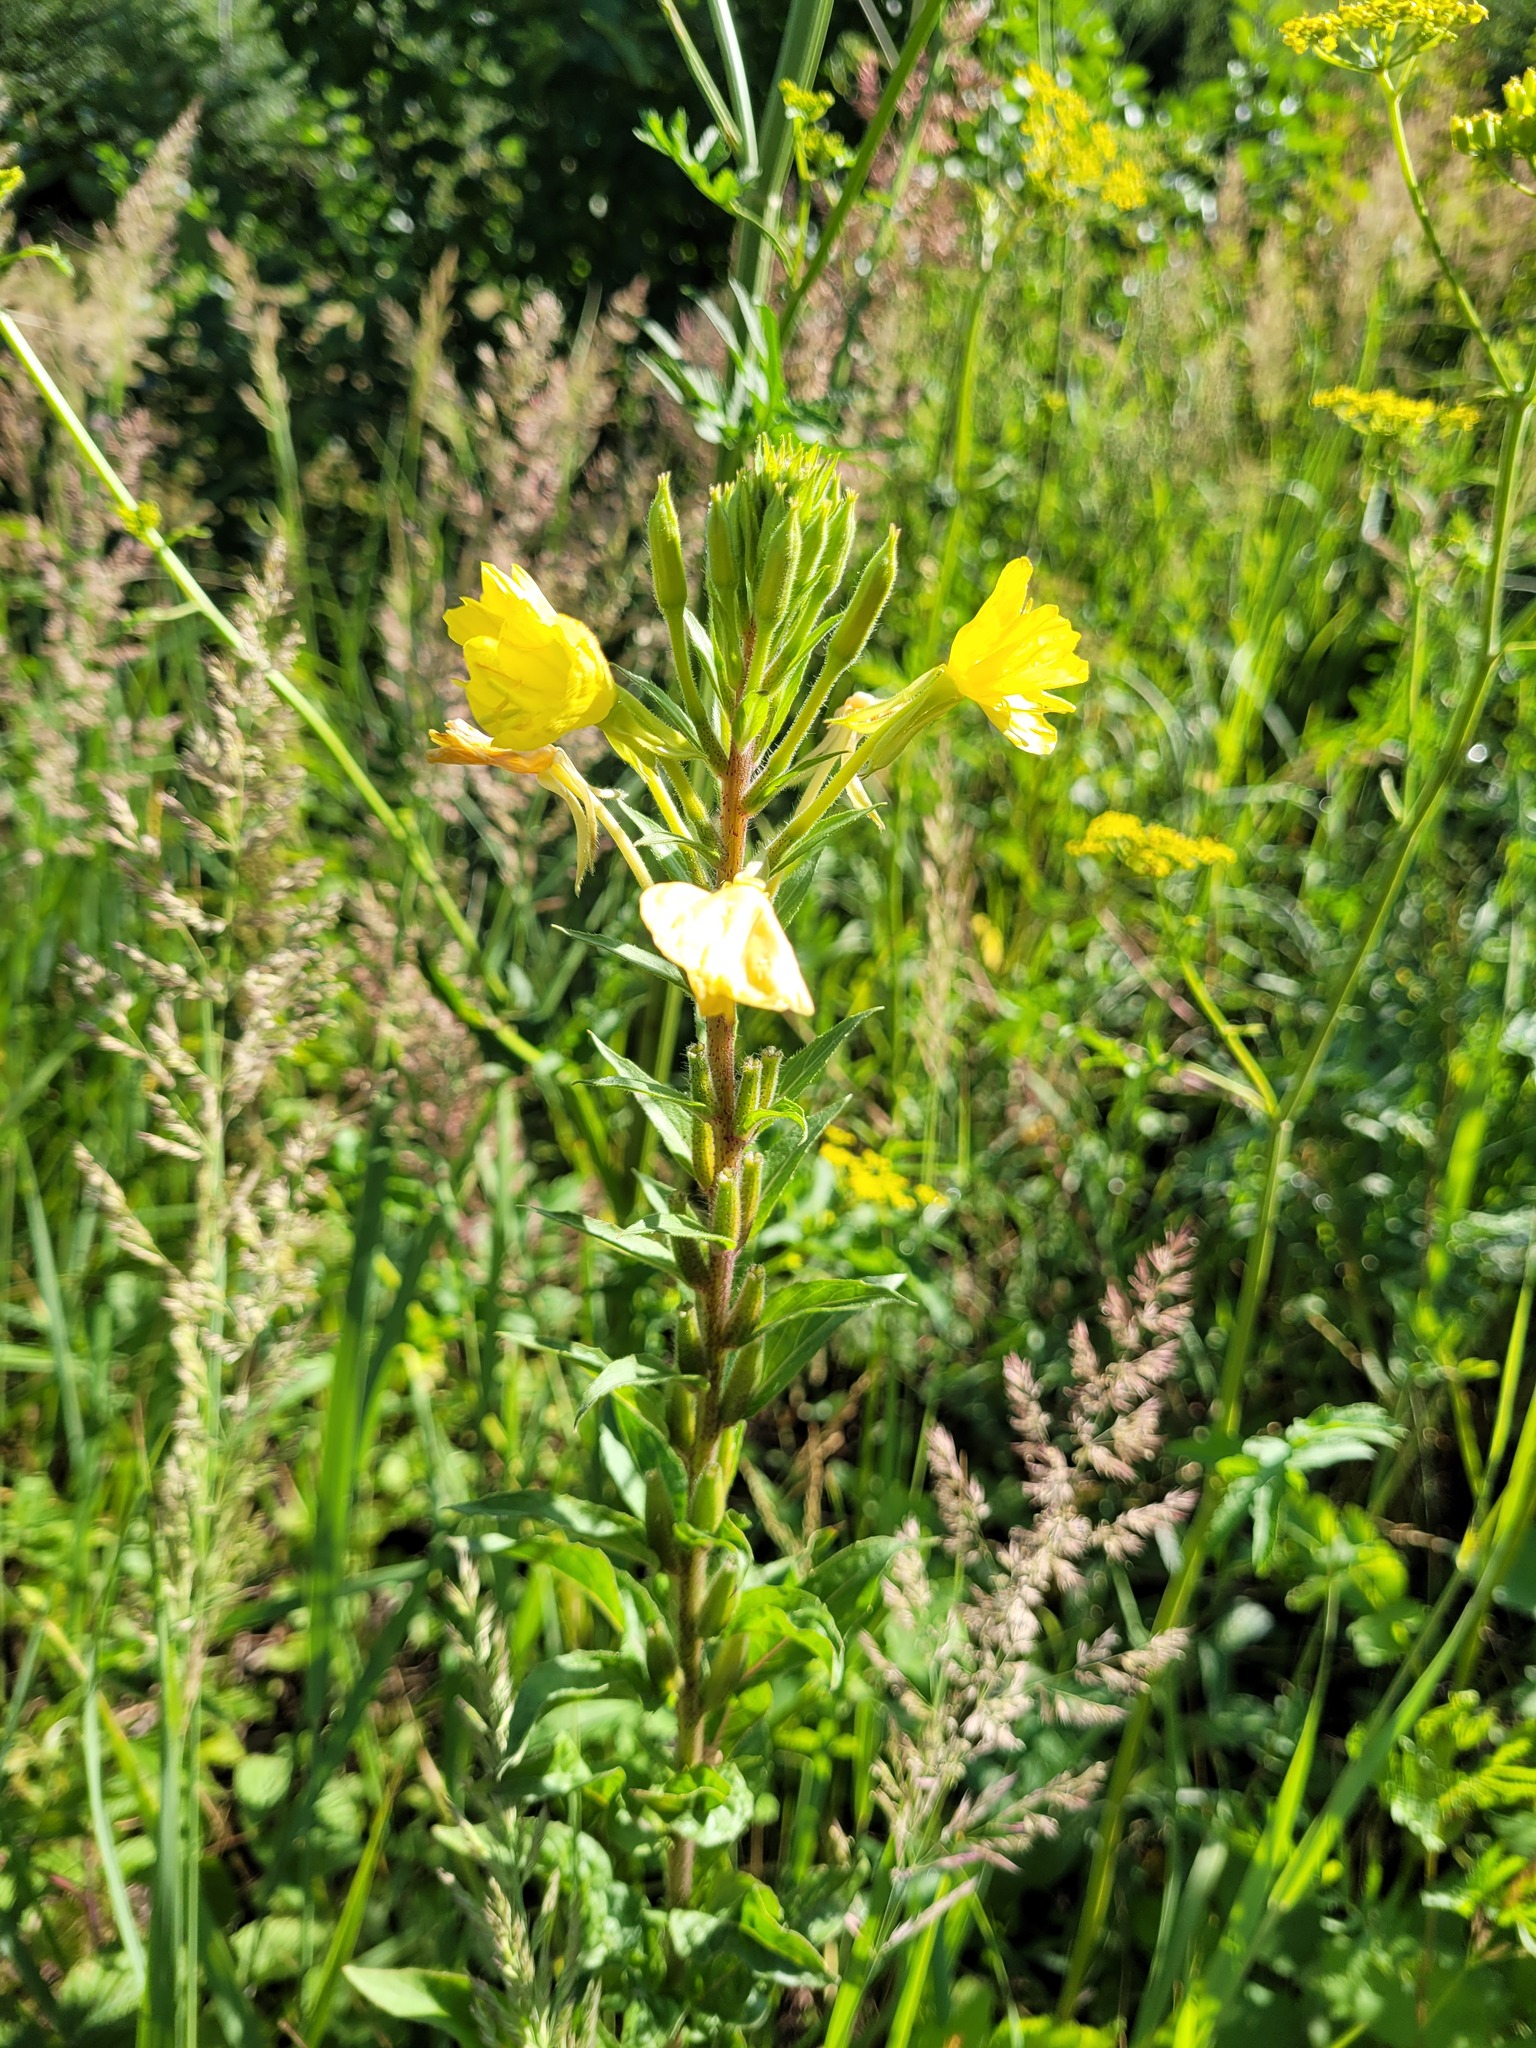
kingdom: Plantae
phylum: Tracheophyta
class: Magnoliopsida
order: Myrtales
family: Onagraceae
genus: Oenothera
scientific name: Oenothera rubricaulis
